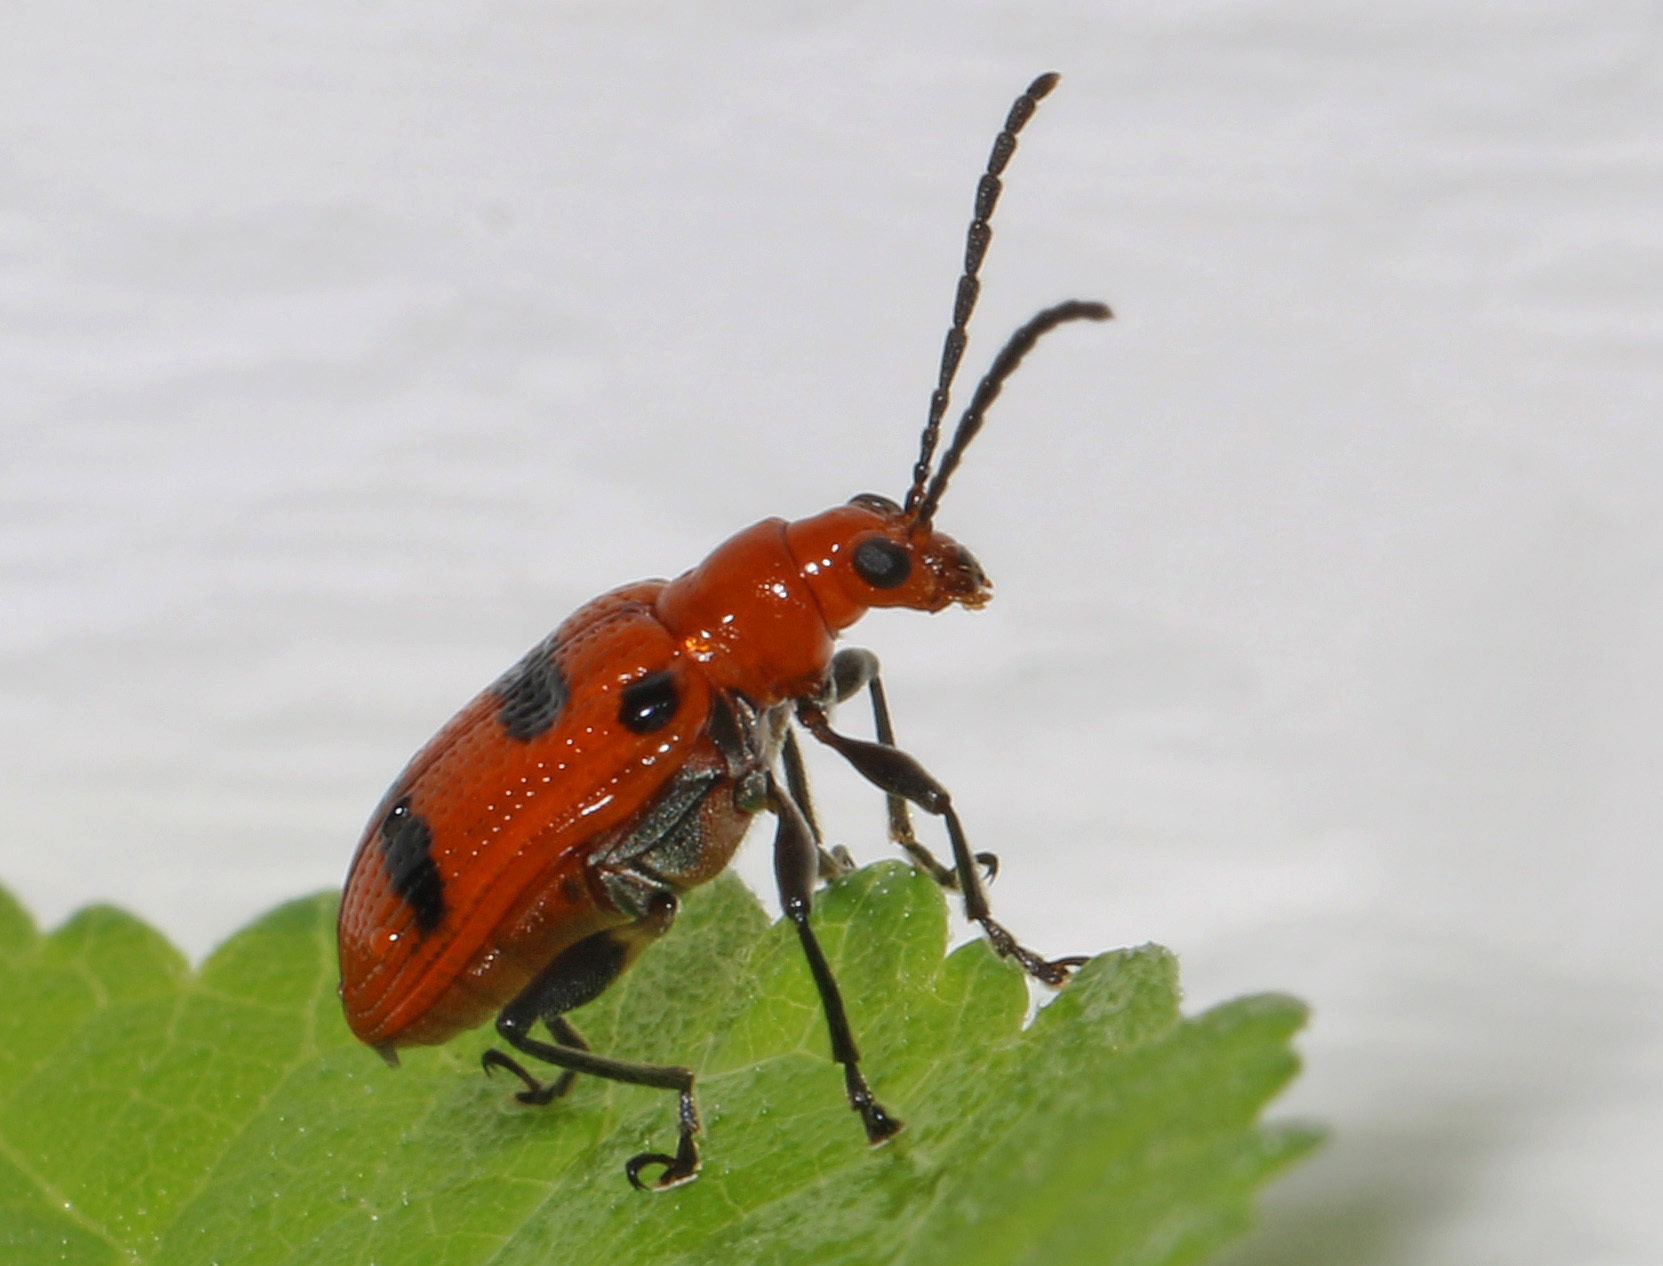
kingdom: Animalia
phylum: Arthropoda
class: Insecta
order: Coleoptera
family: Chrysomelidae
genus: Neolema
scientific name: Neolema sexpunctata
